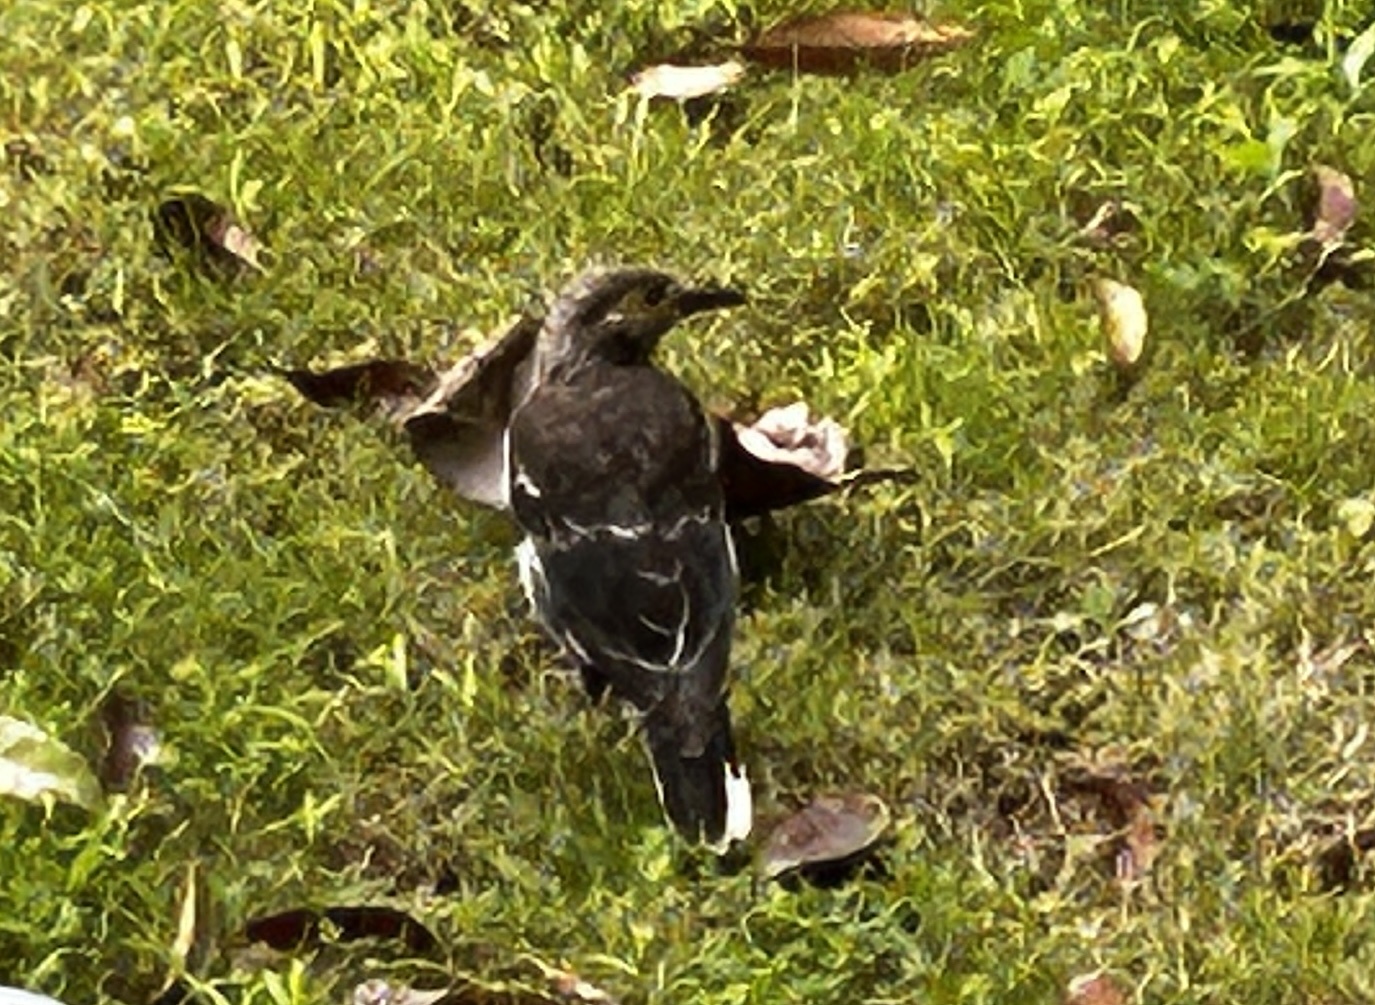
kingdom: Animalia
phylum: Chordata
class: Aves
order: Passeriformes
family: Sturnidae
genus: Gracupica
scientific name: Gracupica nigricollis
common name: Black-collared starling
